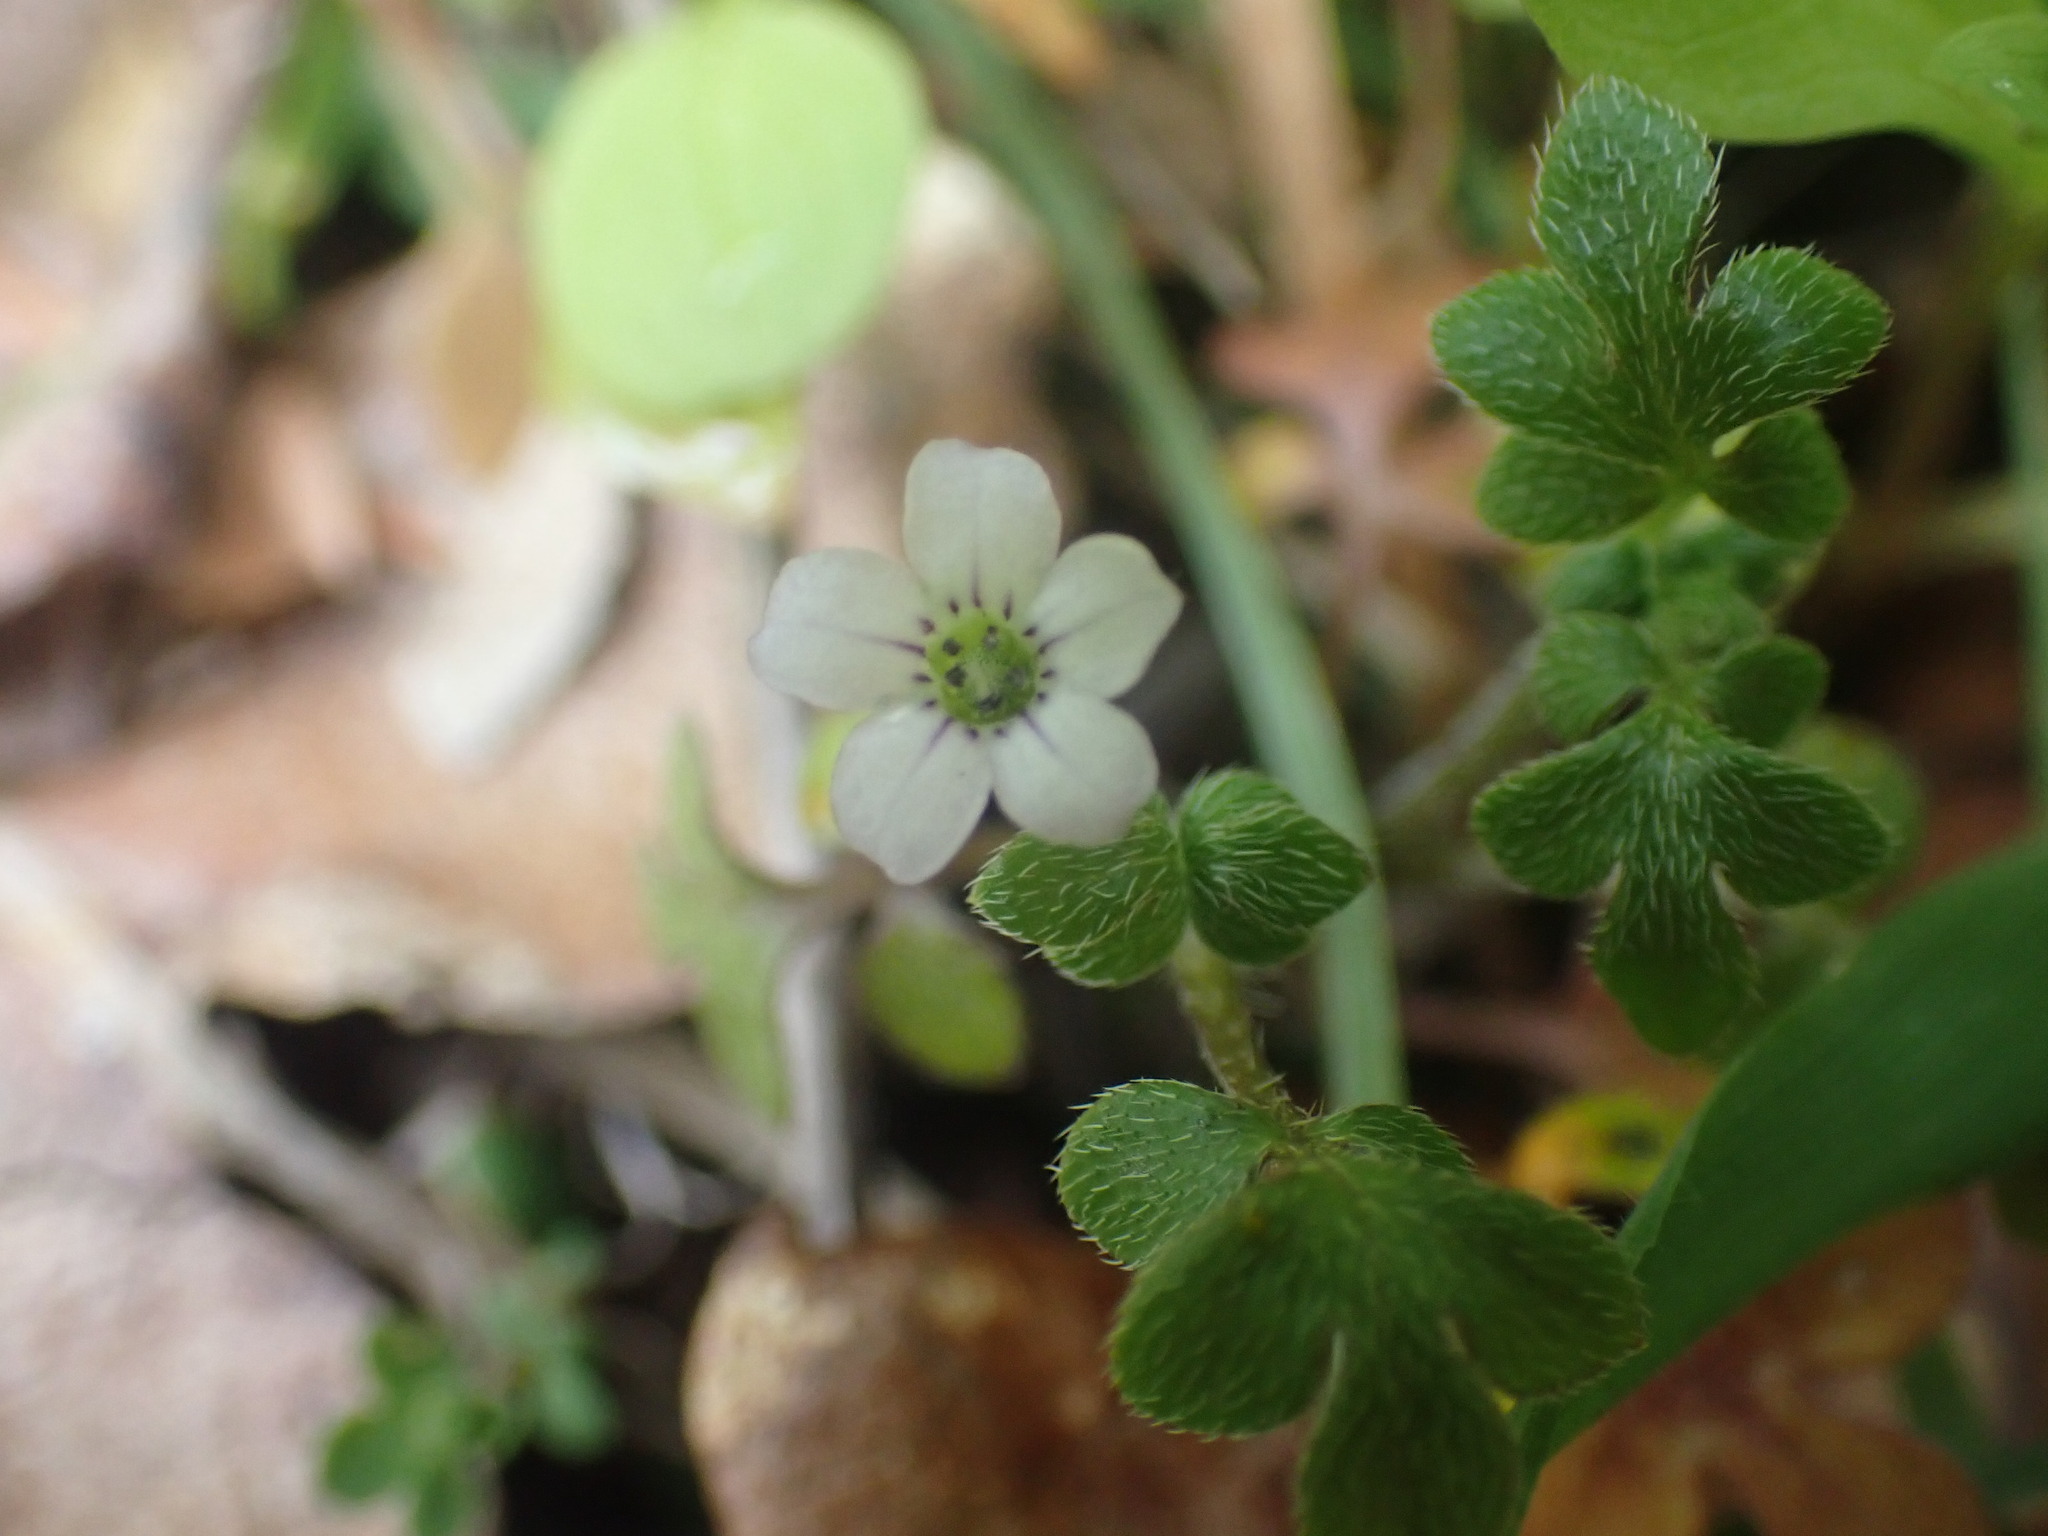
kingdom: Plantae
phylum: Tracheophyta
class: Magnoliopsida
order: Boraginales
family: Hydrophyllaceae
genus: Nemophila
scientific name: Nemophila parviflora
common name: Small-flowered baby-blue-eyes
